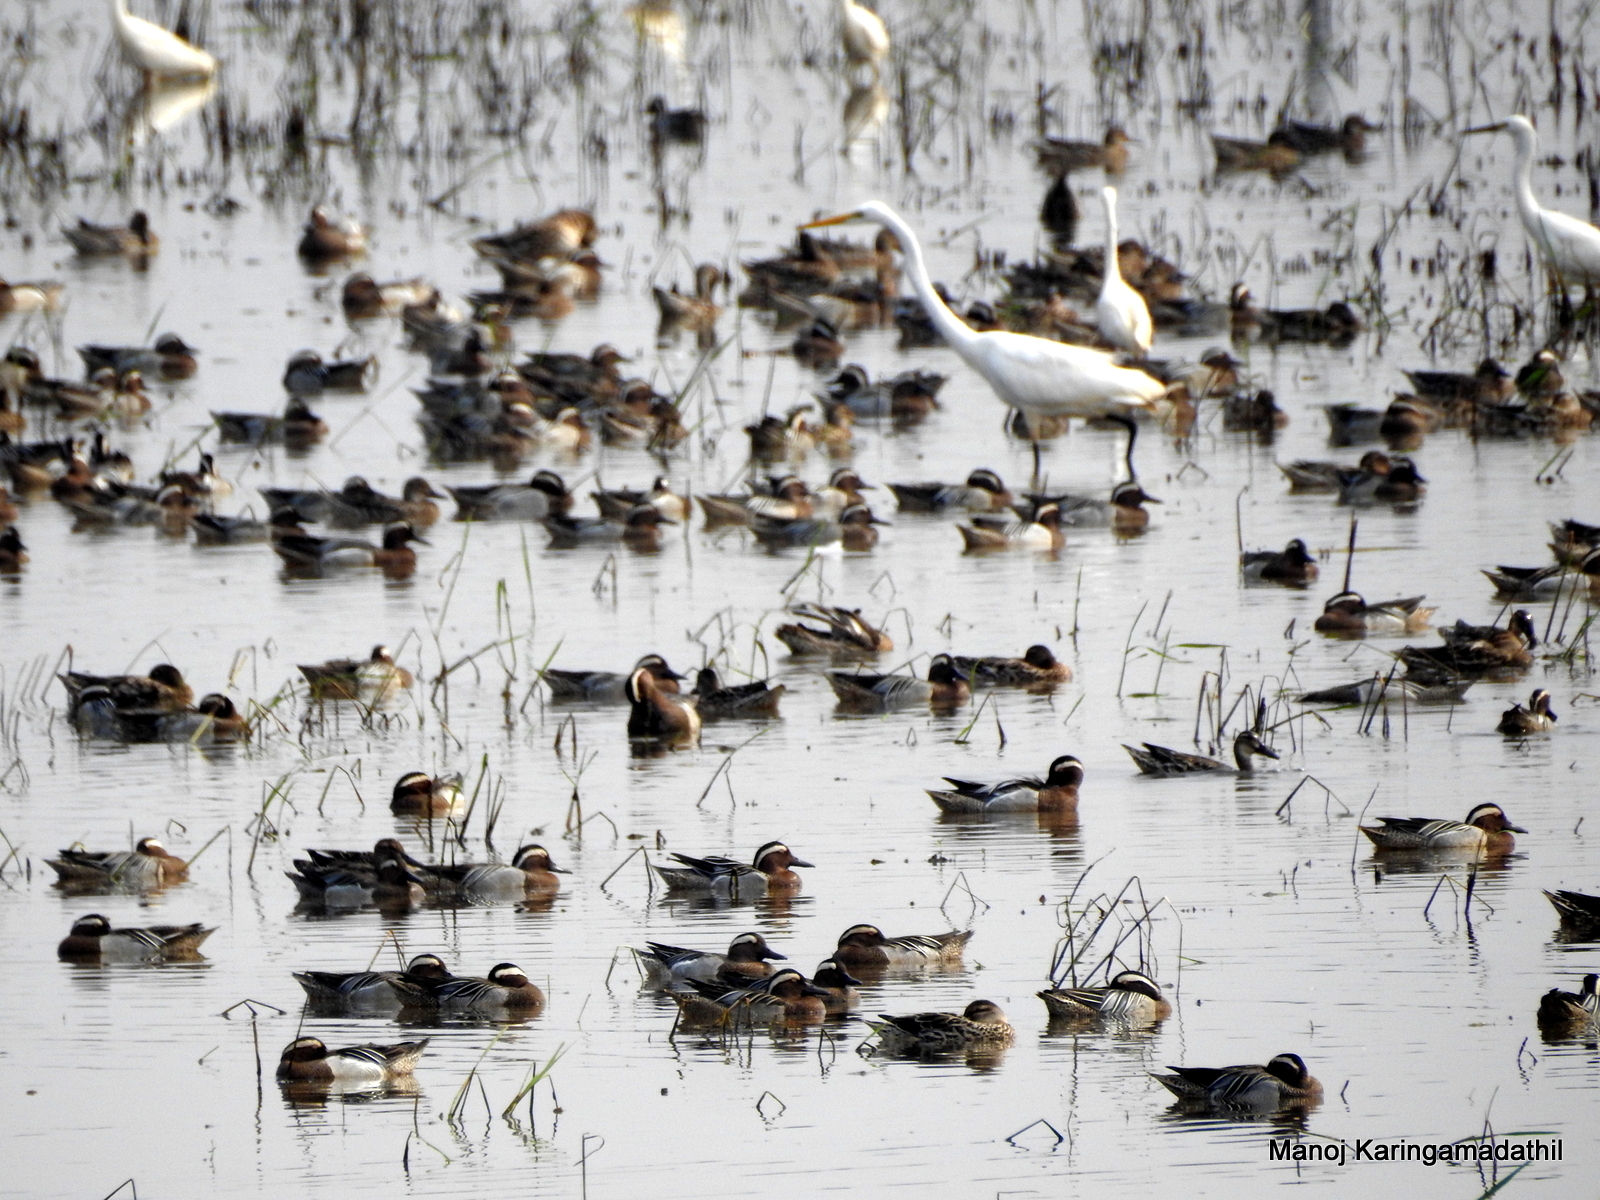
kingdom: Animalia
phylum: Chordata
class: Aves
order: Anseriformes
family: Anatidae
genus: Spatula
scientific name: Spatula querquedula
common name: Garganey
